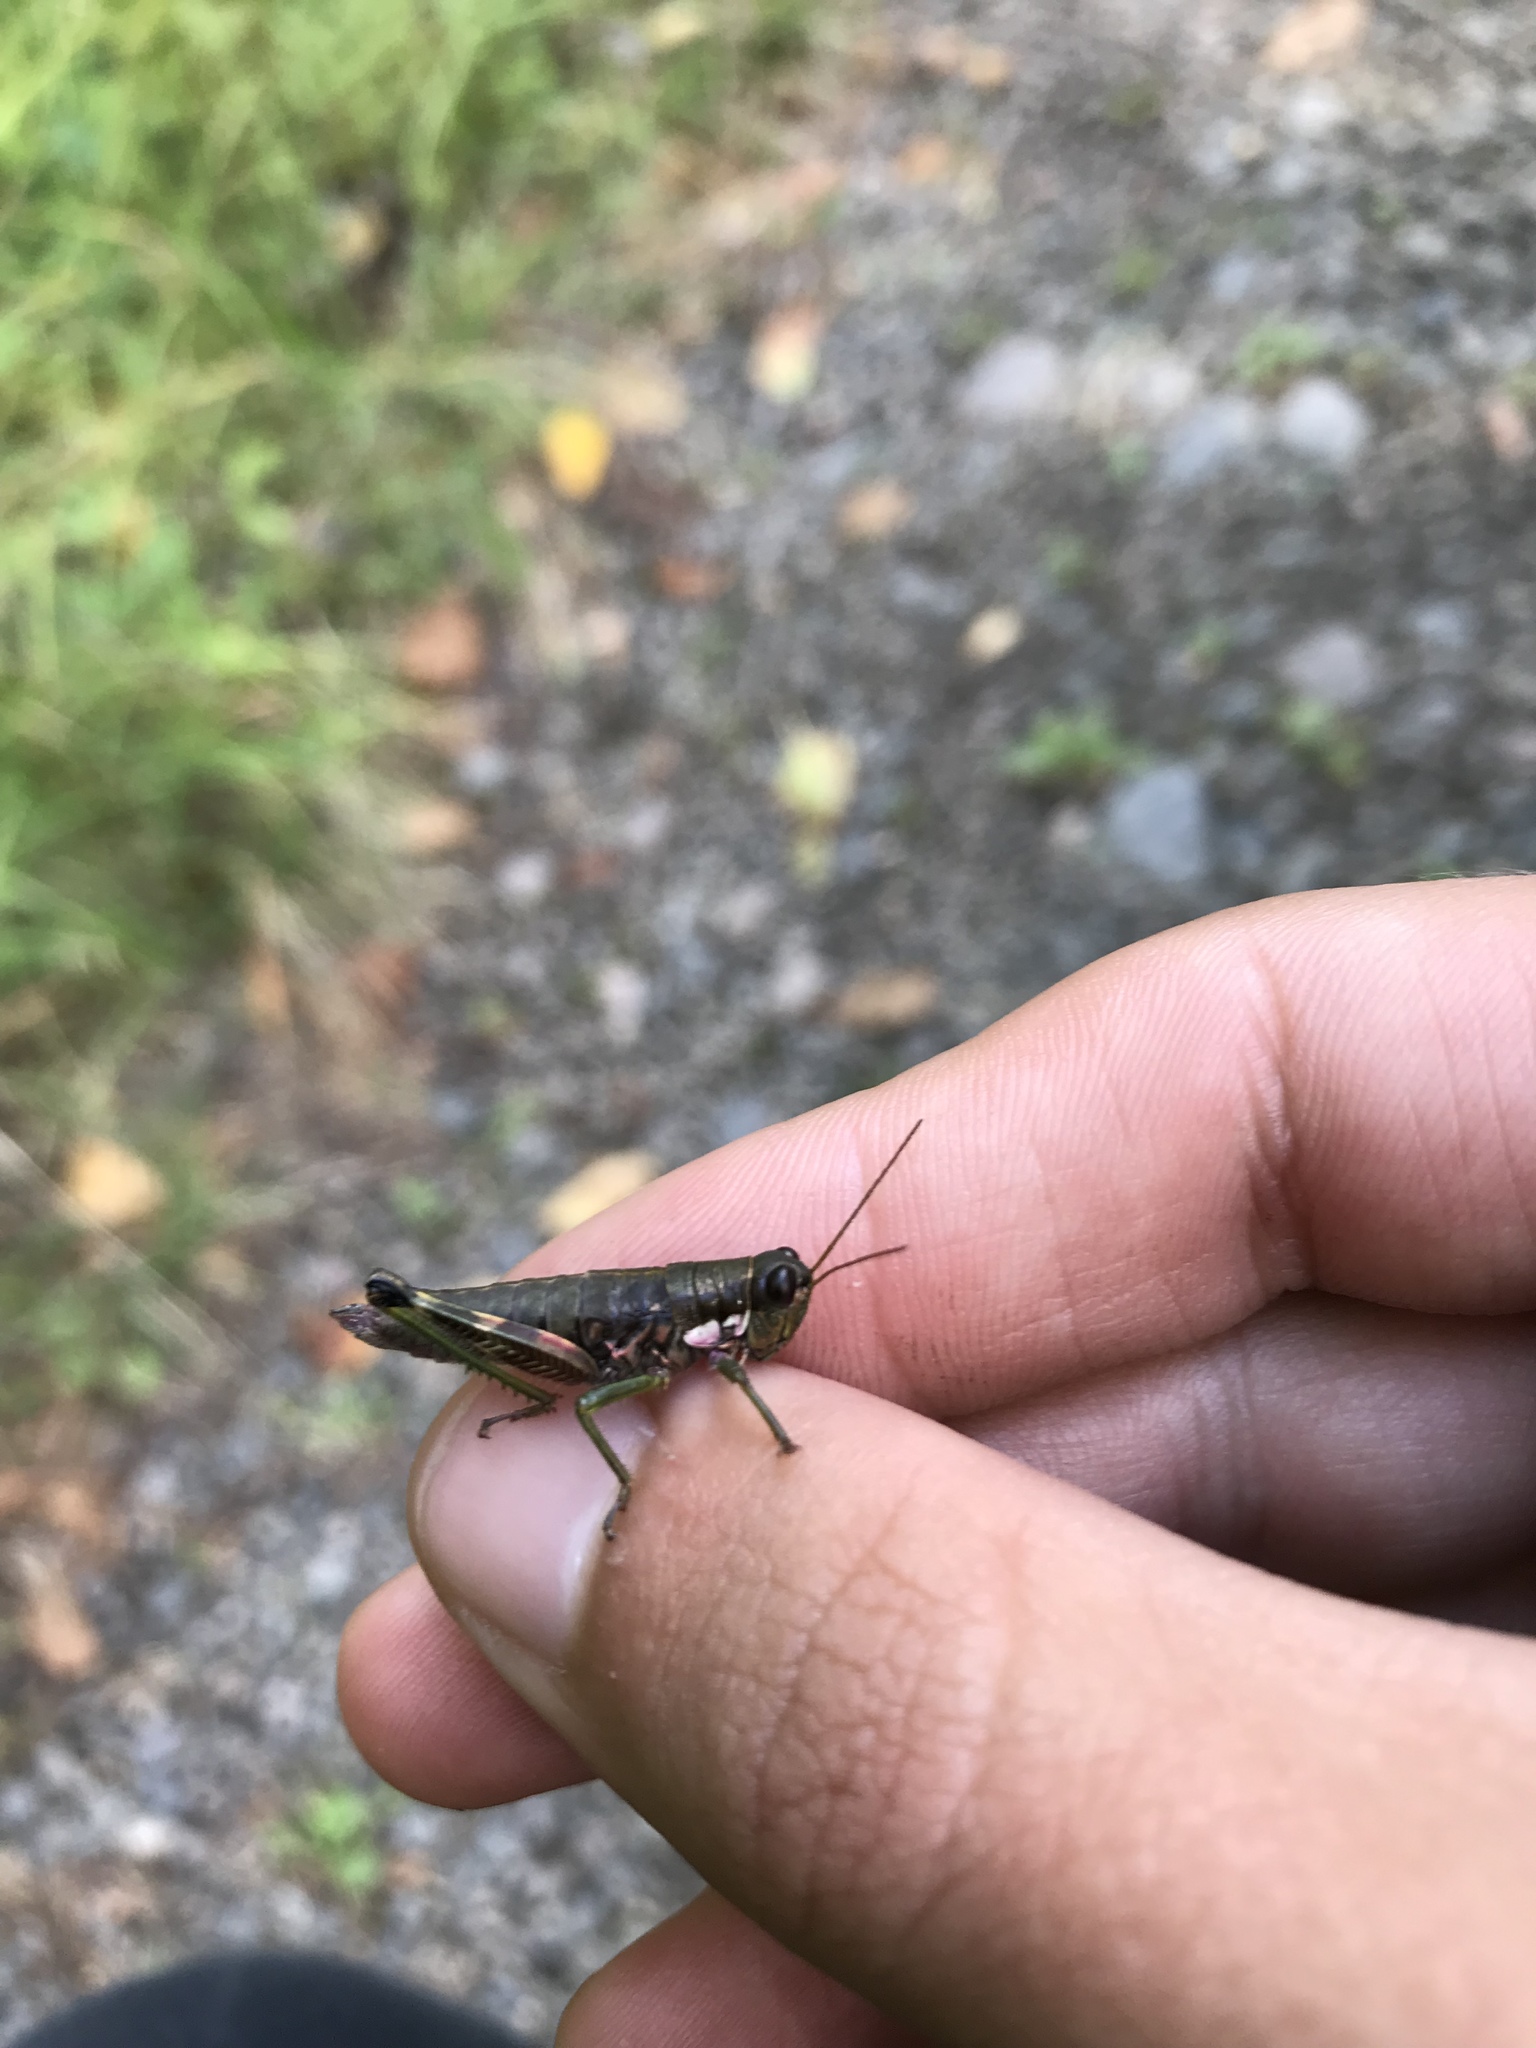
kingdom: Animalia
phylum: Arthropoda
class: Insecta
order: Orthoptera
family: Acrididae
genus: Booneacris
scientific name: Booneacris glacialis
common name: Wingless mountain grasshopper
